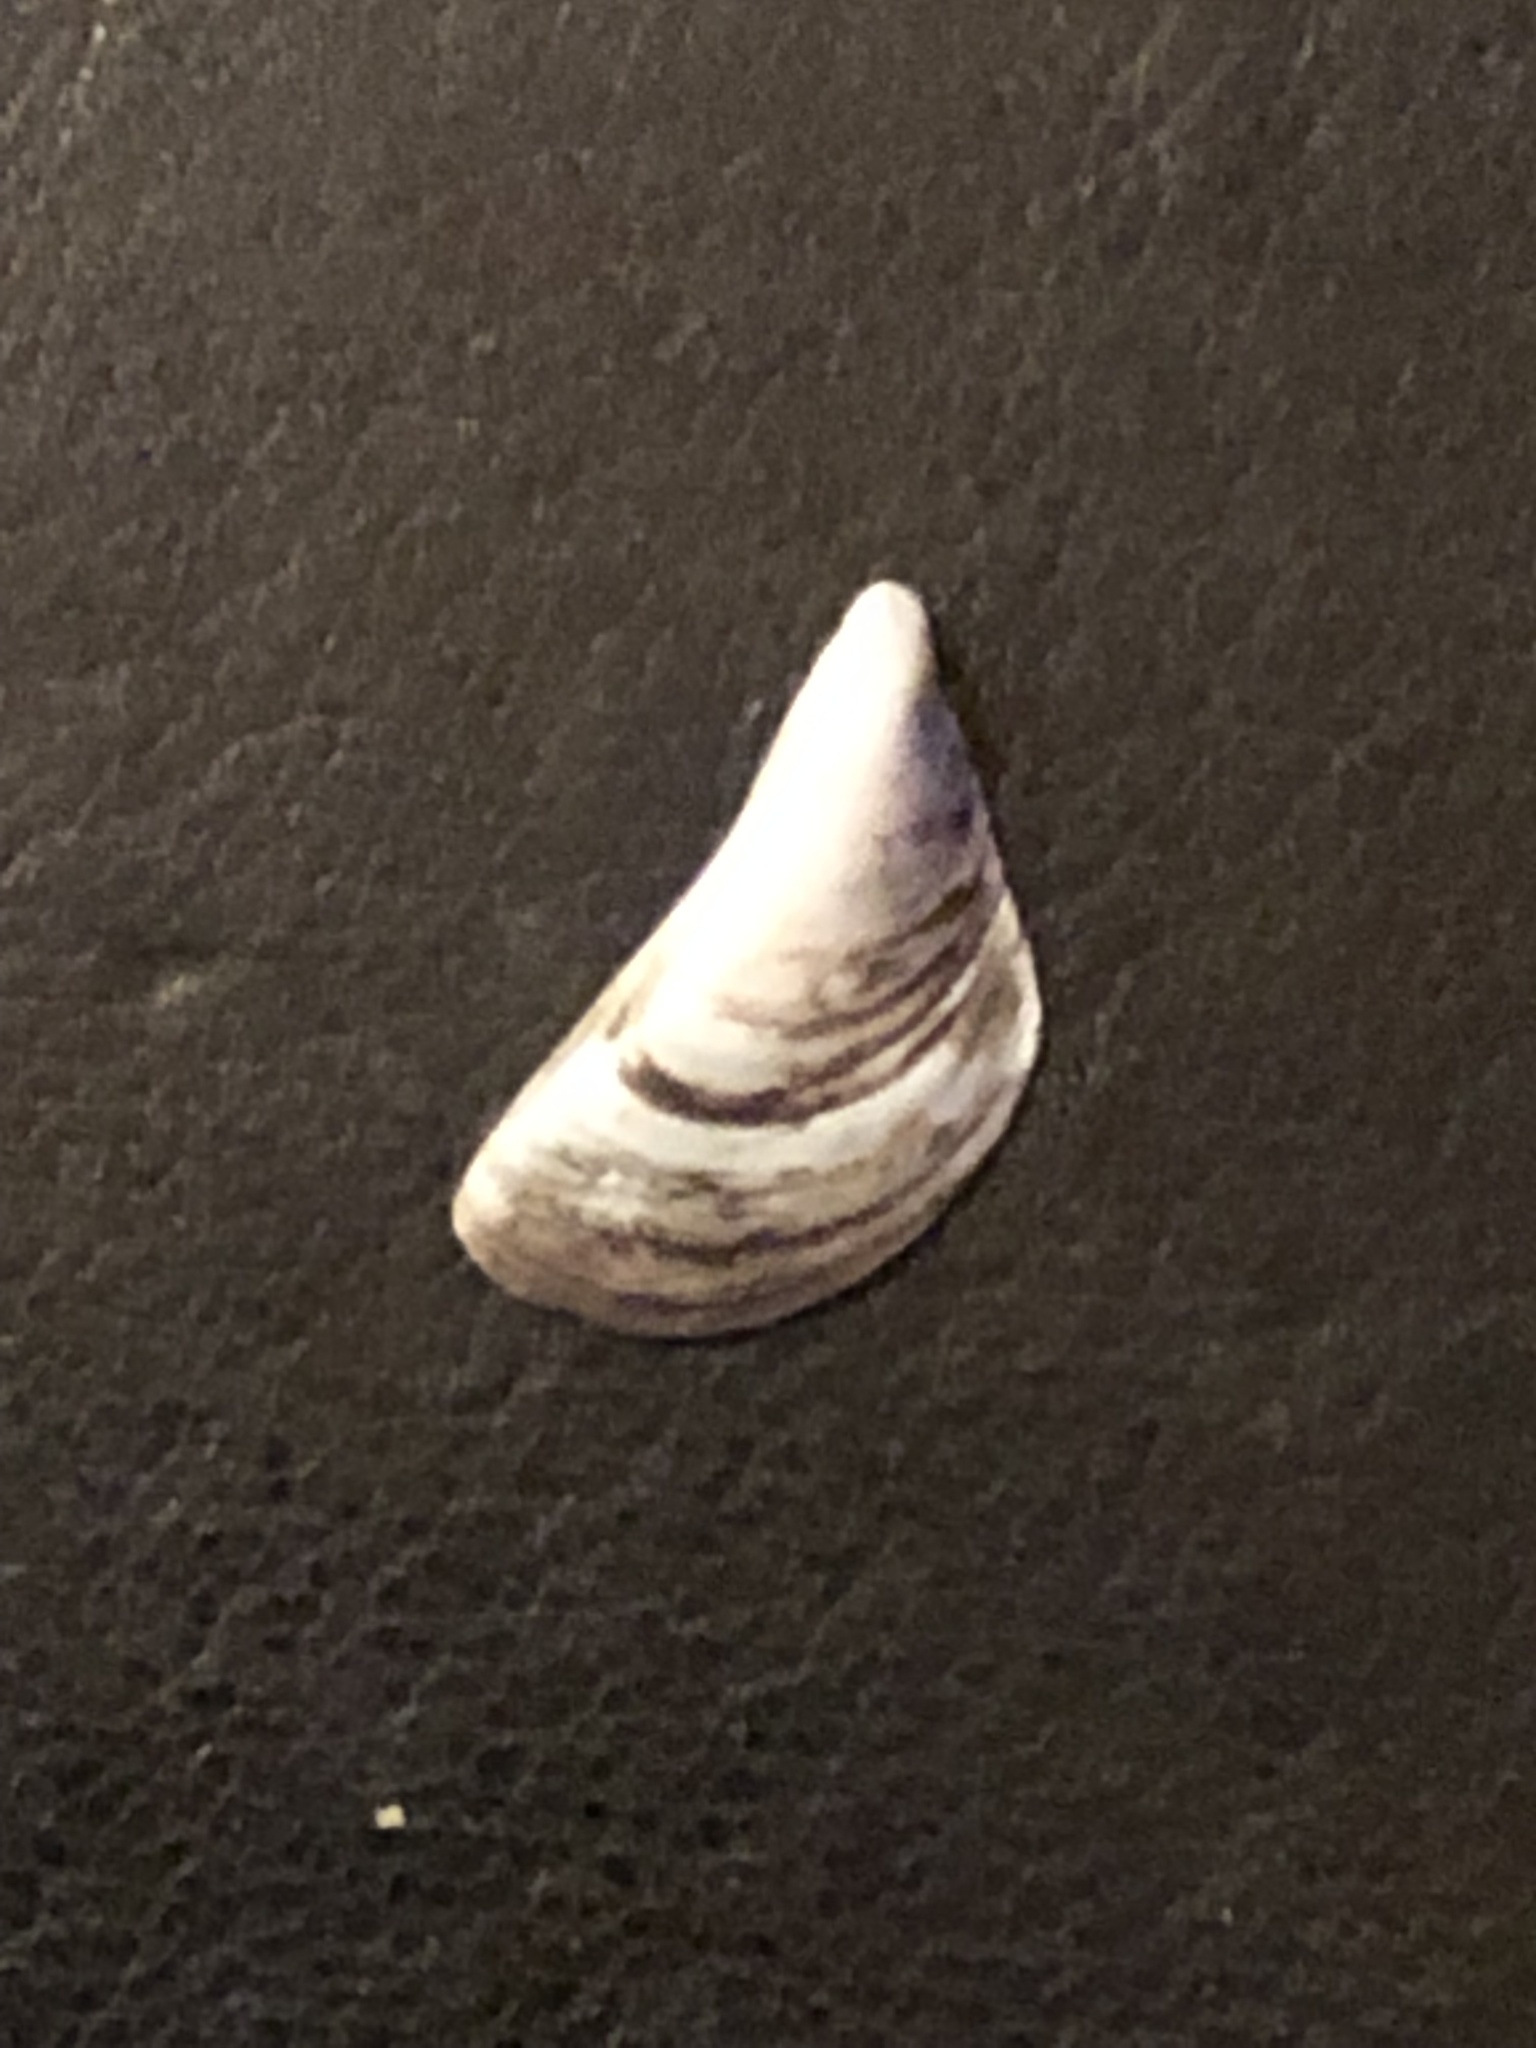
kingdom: Animalia
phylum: Mollusca
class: Bivalvia
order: Myida
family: Dreissenidae
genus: Dreissena
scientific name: Dreissena polymorpha
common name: Zebra mussel
